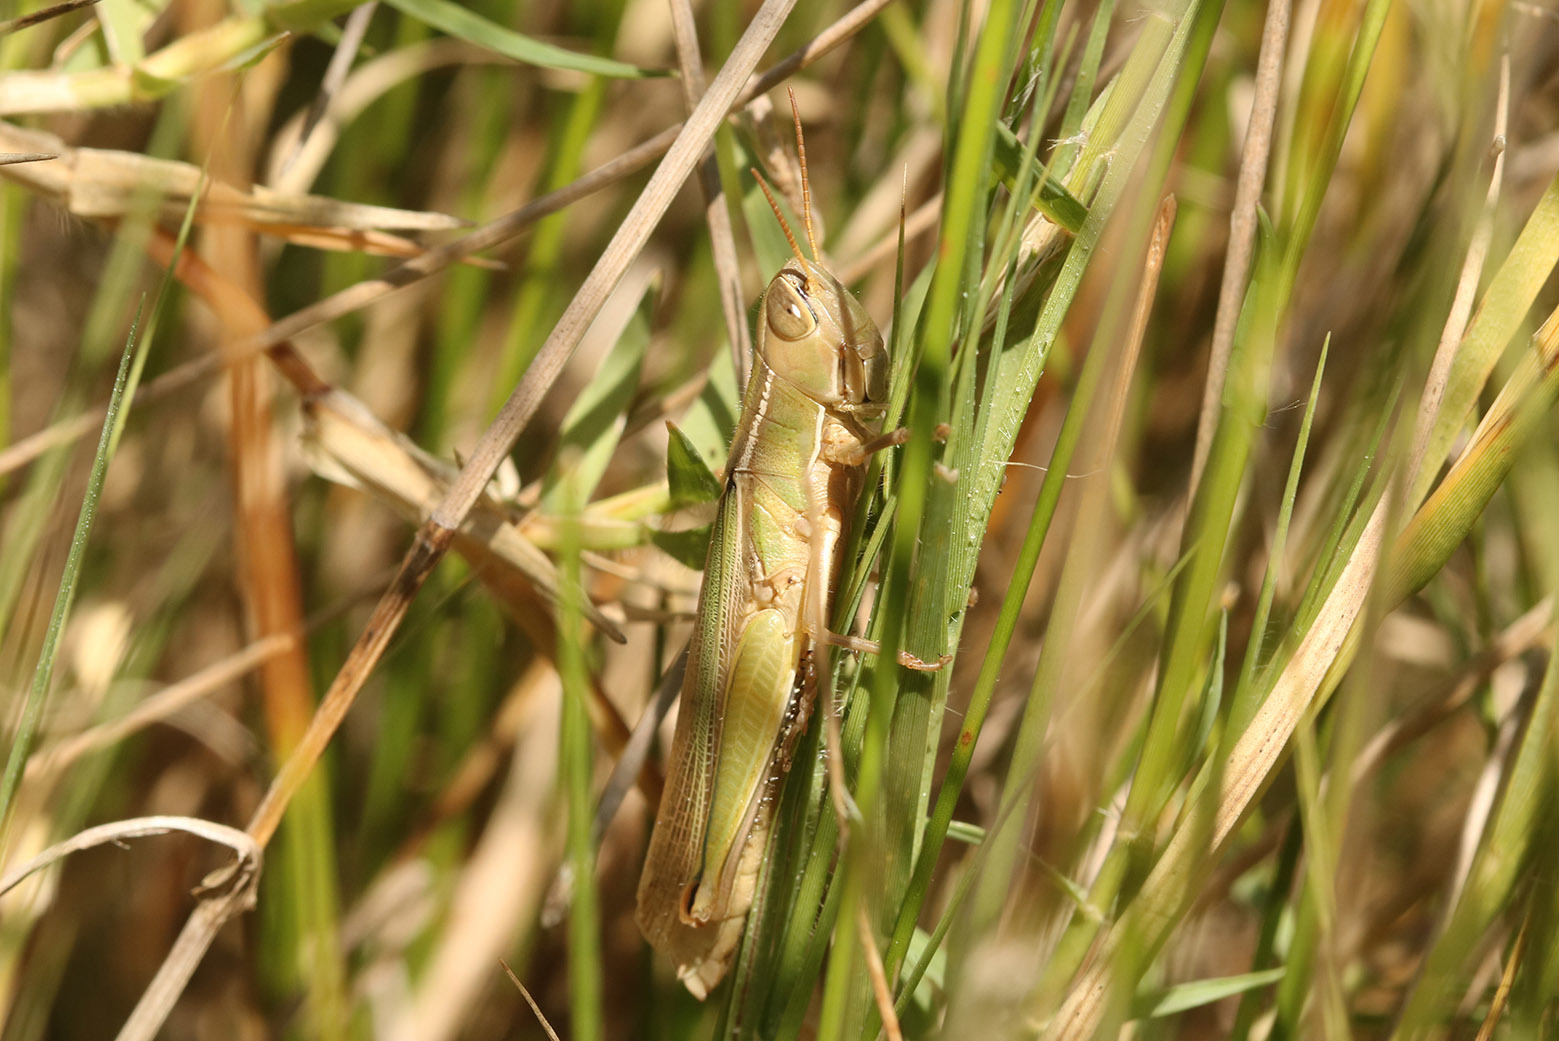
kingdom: Animalia
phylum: Arthropoda
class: Insecta
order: Orthoptera
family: Acrididae
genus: Aleuas
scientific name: Aleuas lineatus
